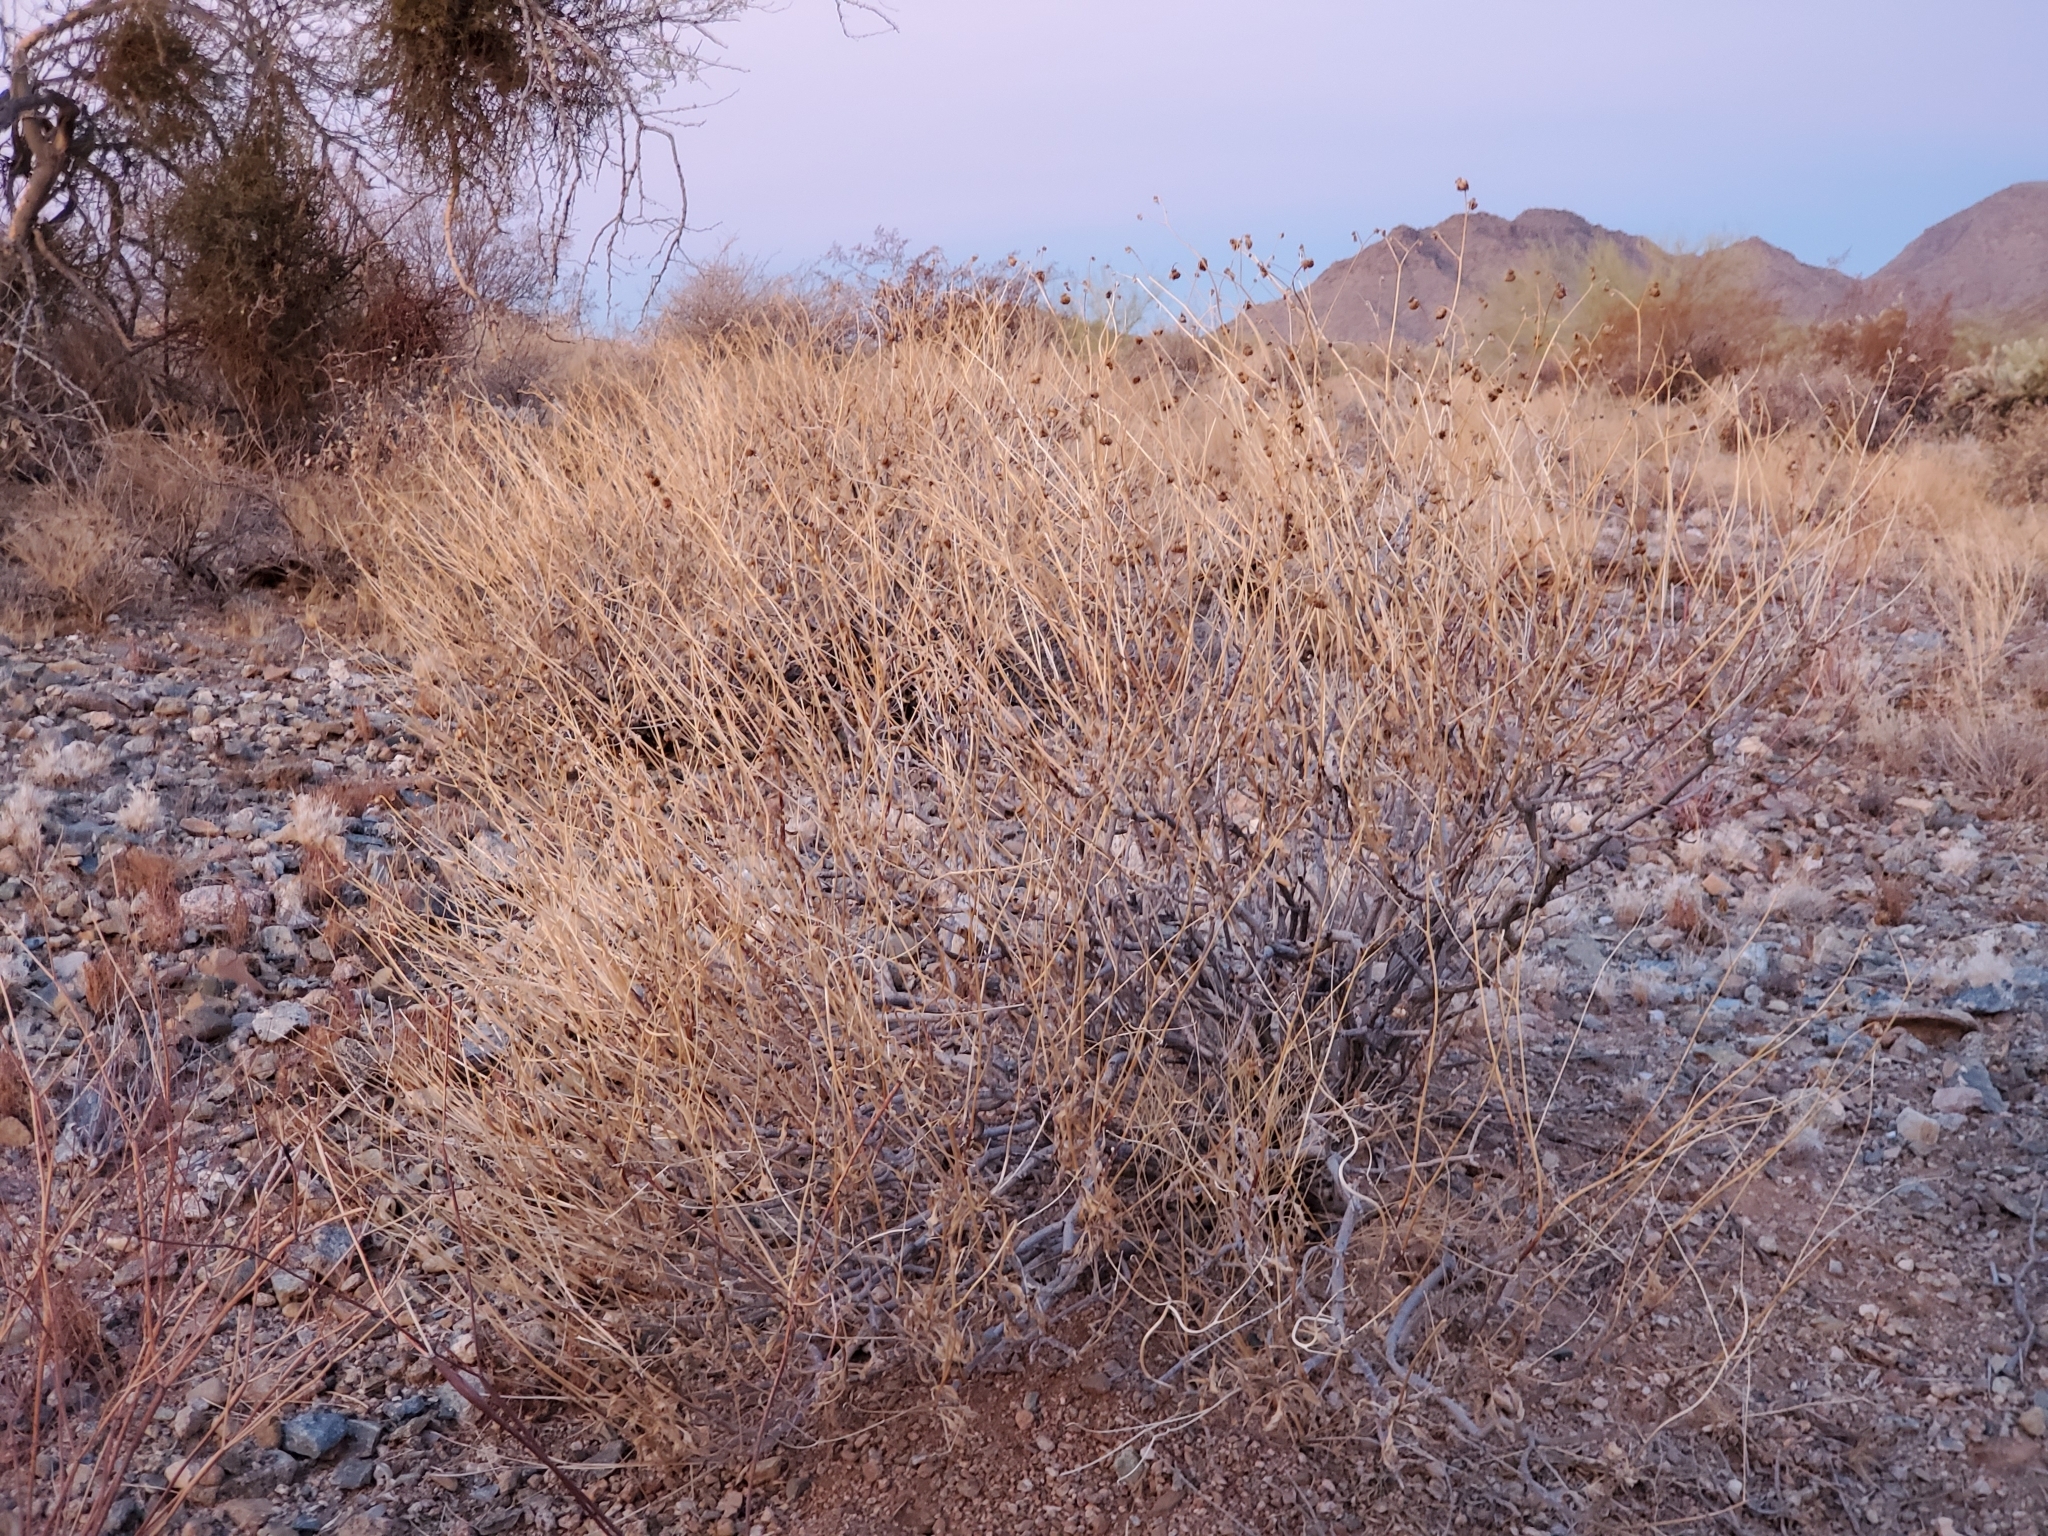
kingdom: Plantae
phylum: Tracheophyta
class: Magnoliopsida
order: Asterales
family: Asteraceae
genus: Encelia
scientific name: Encelia farinosa
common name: Brittlebush
